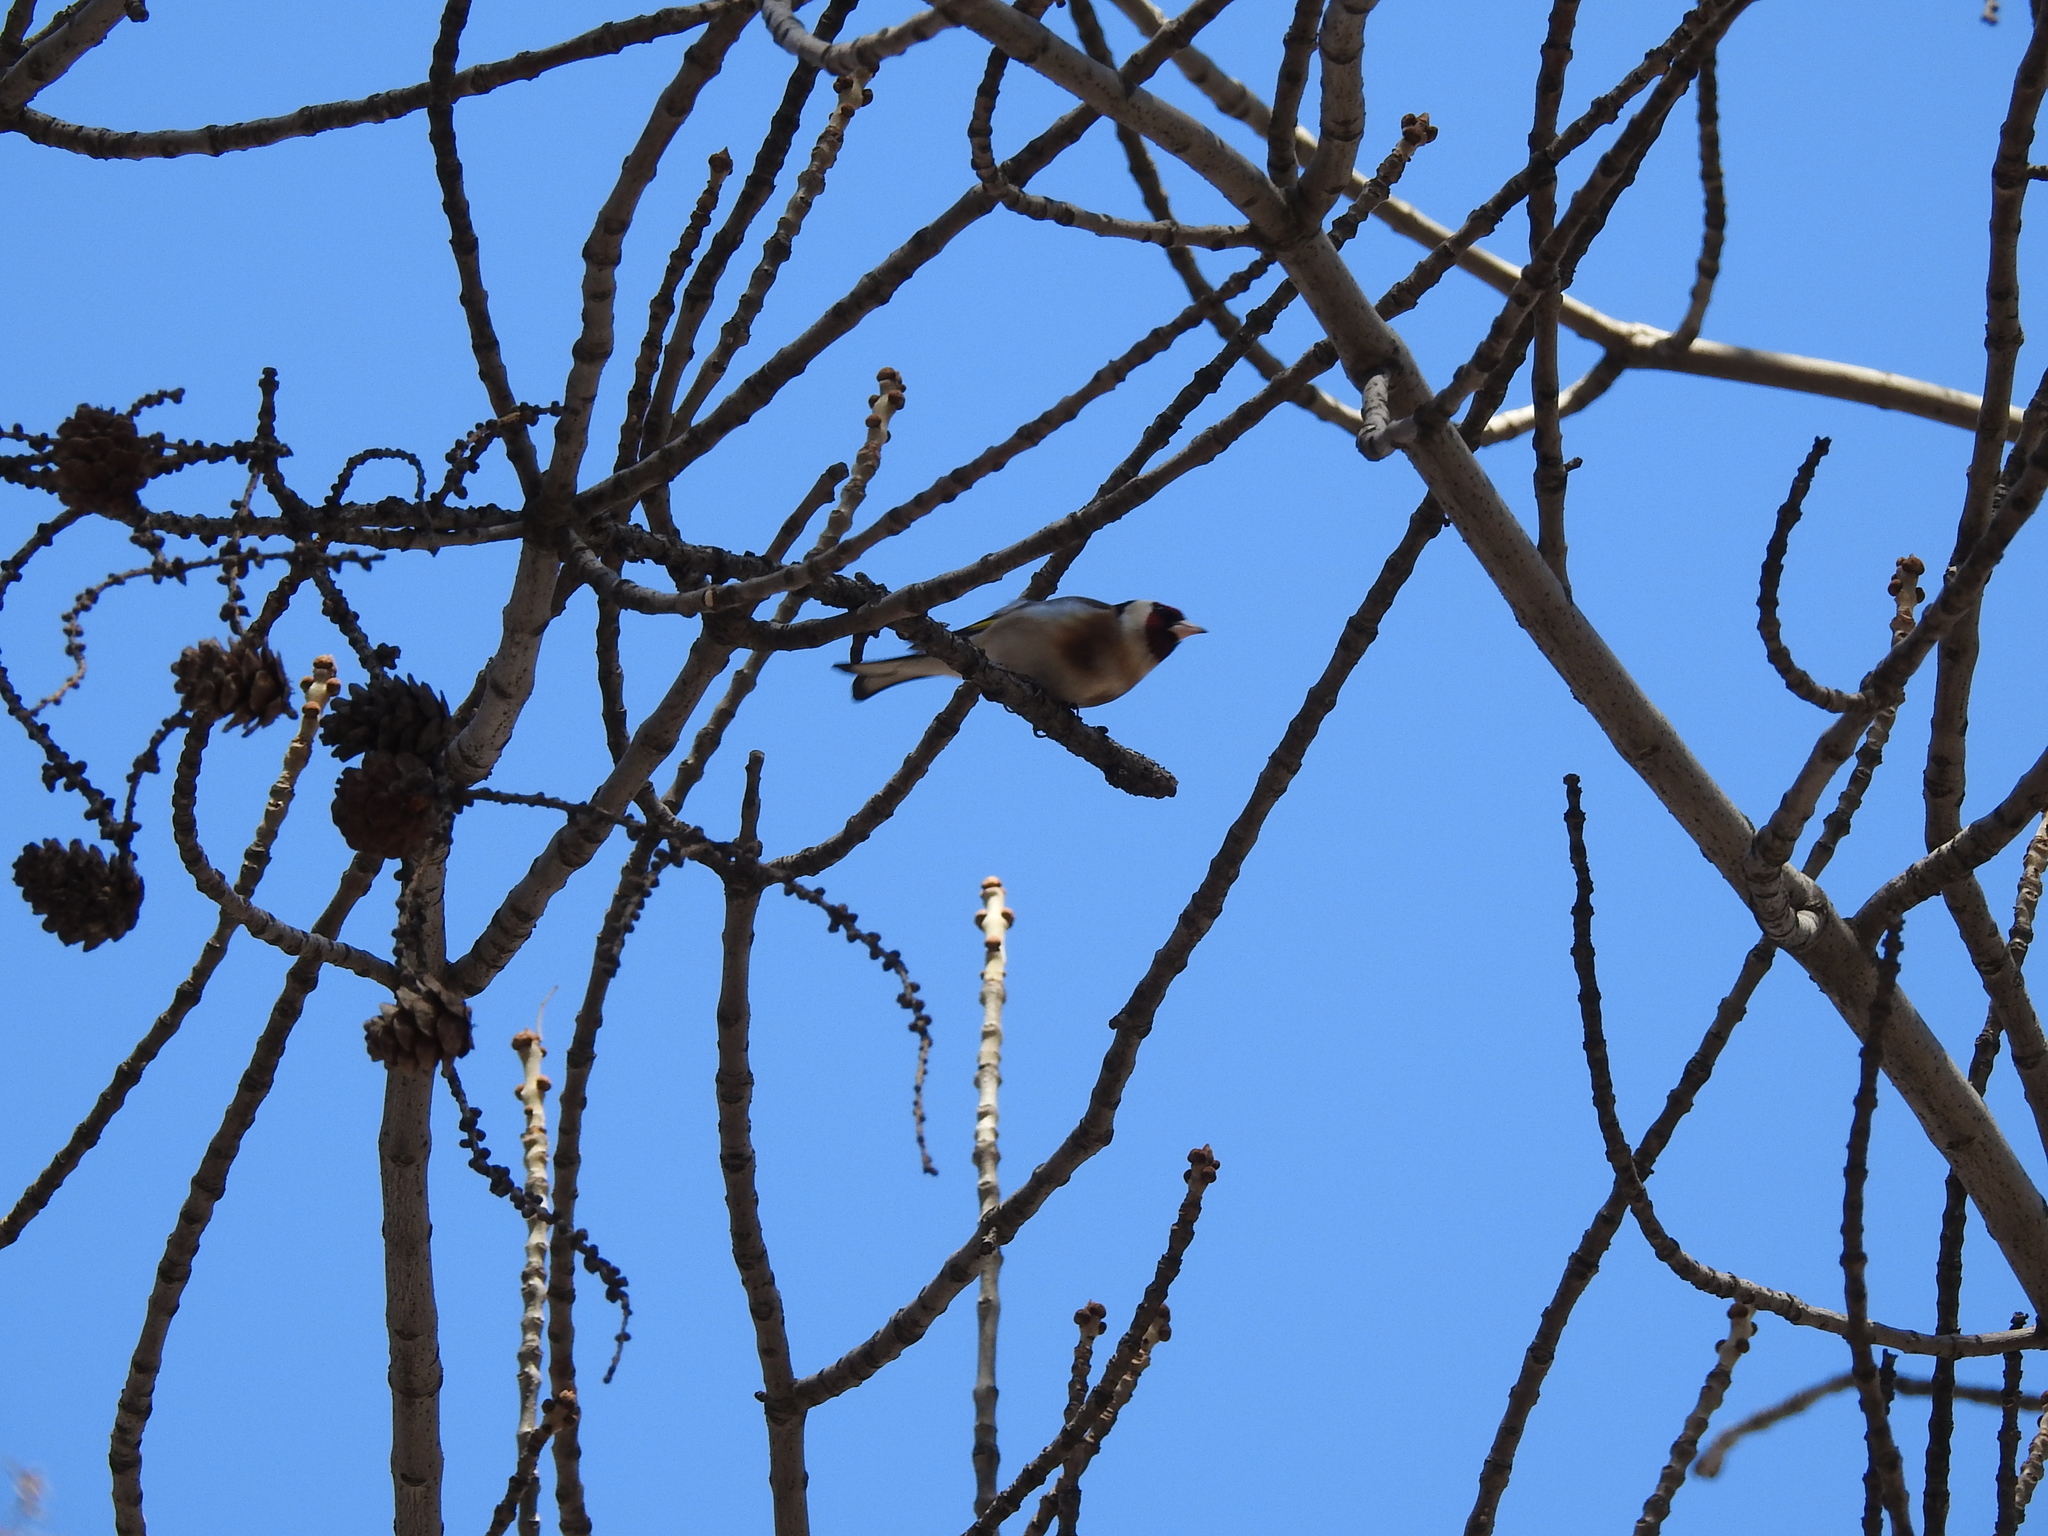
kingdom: Animalia
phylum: Chordata
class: Aves
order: Passeriformes
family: Fringillidae
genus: Carduelis
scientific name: Carduelis carduelis
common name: European goldfinch
